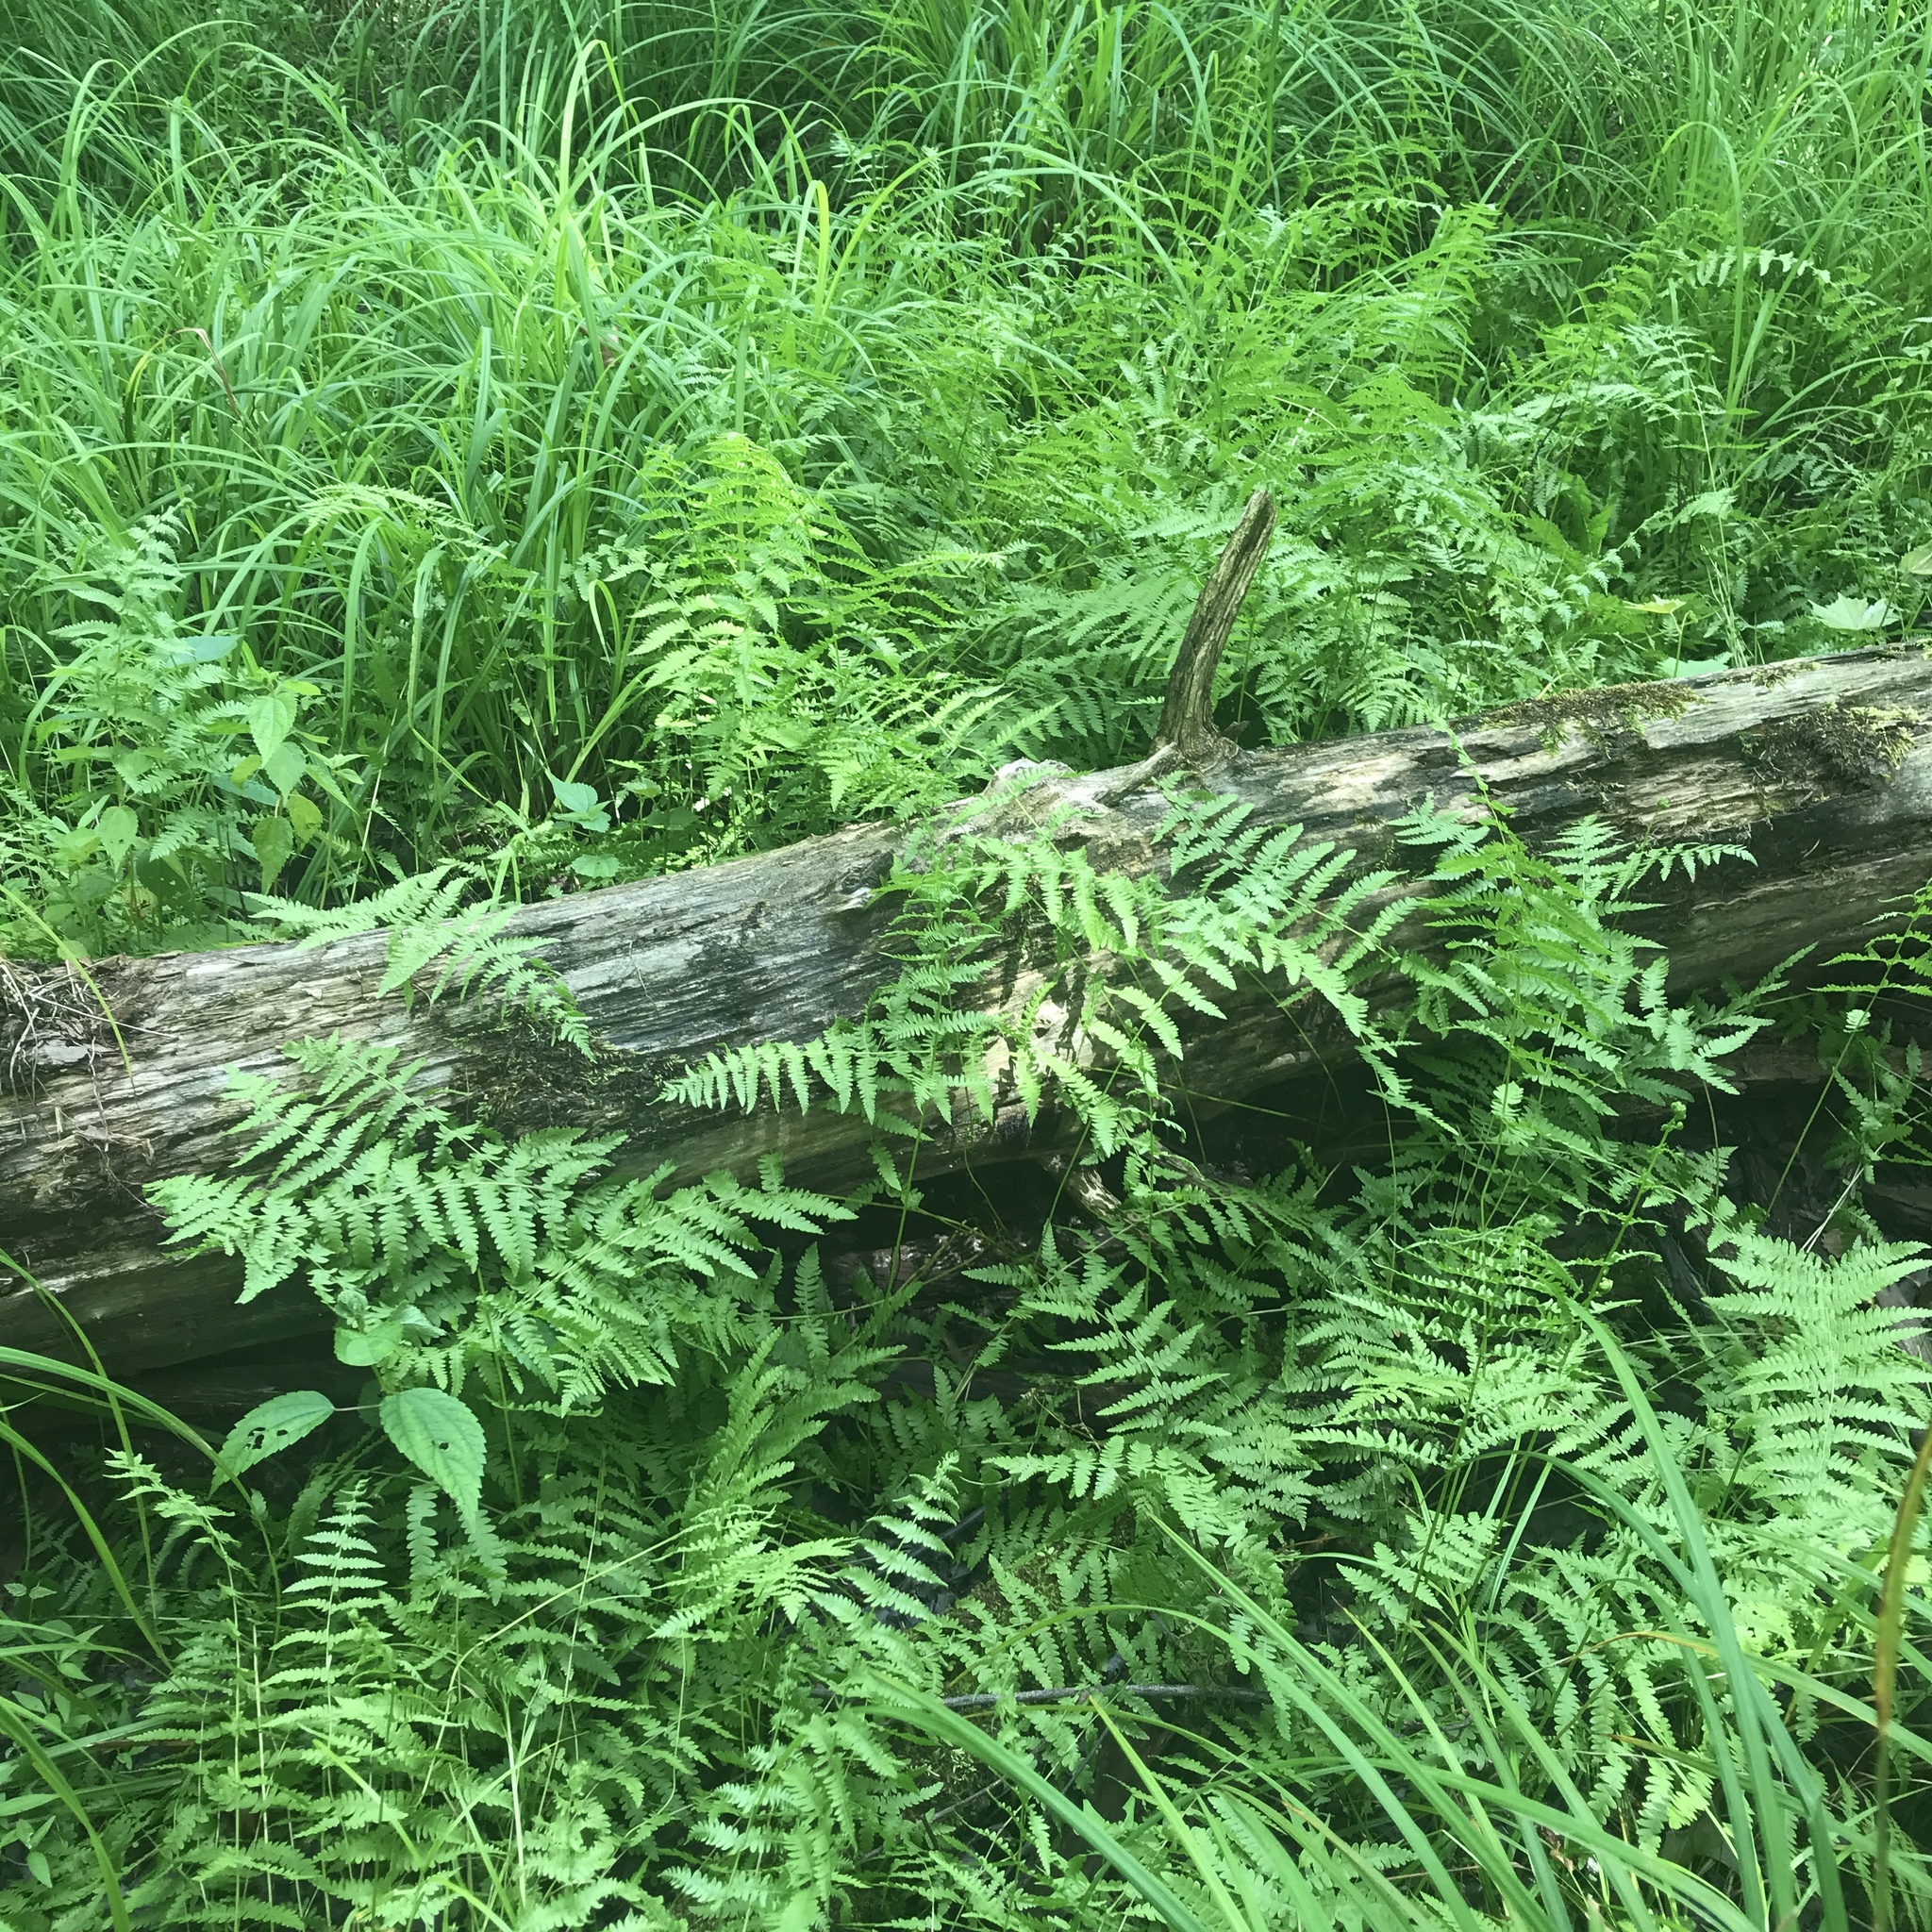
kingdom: Plantae
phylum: Tracheophyta
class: Polypodiopsida
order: Polypodiales
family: Thelypteridaceae
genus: Thelypteris
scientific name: Thelypteris palustris
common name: Marsh fern
